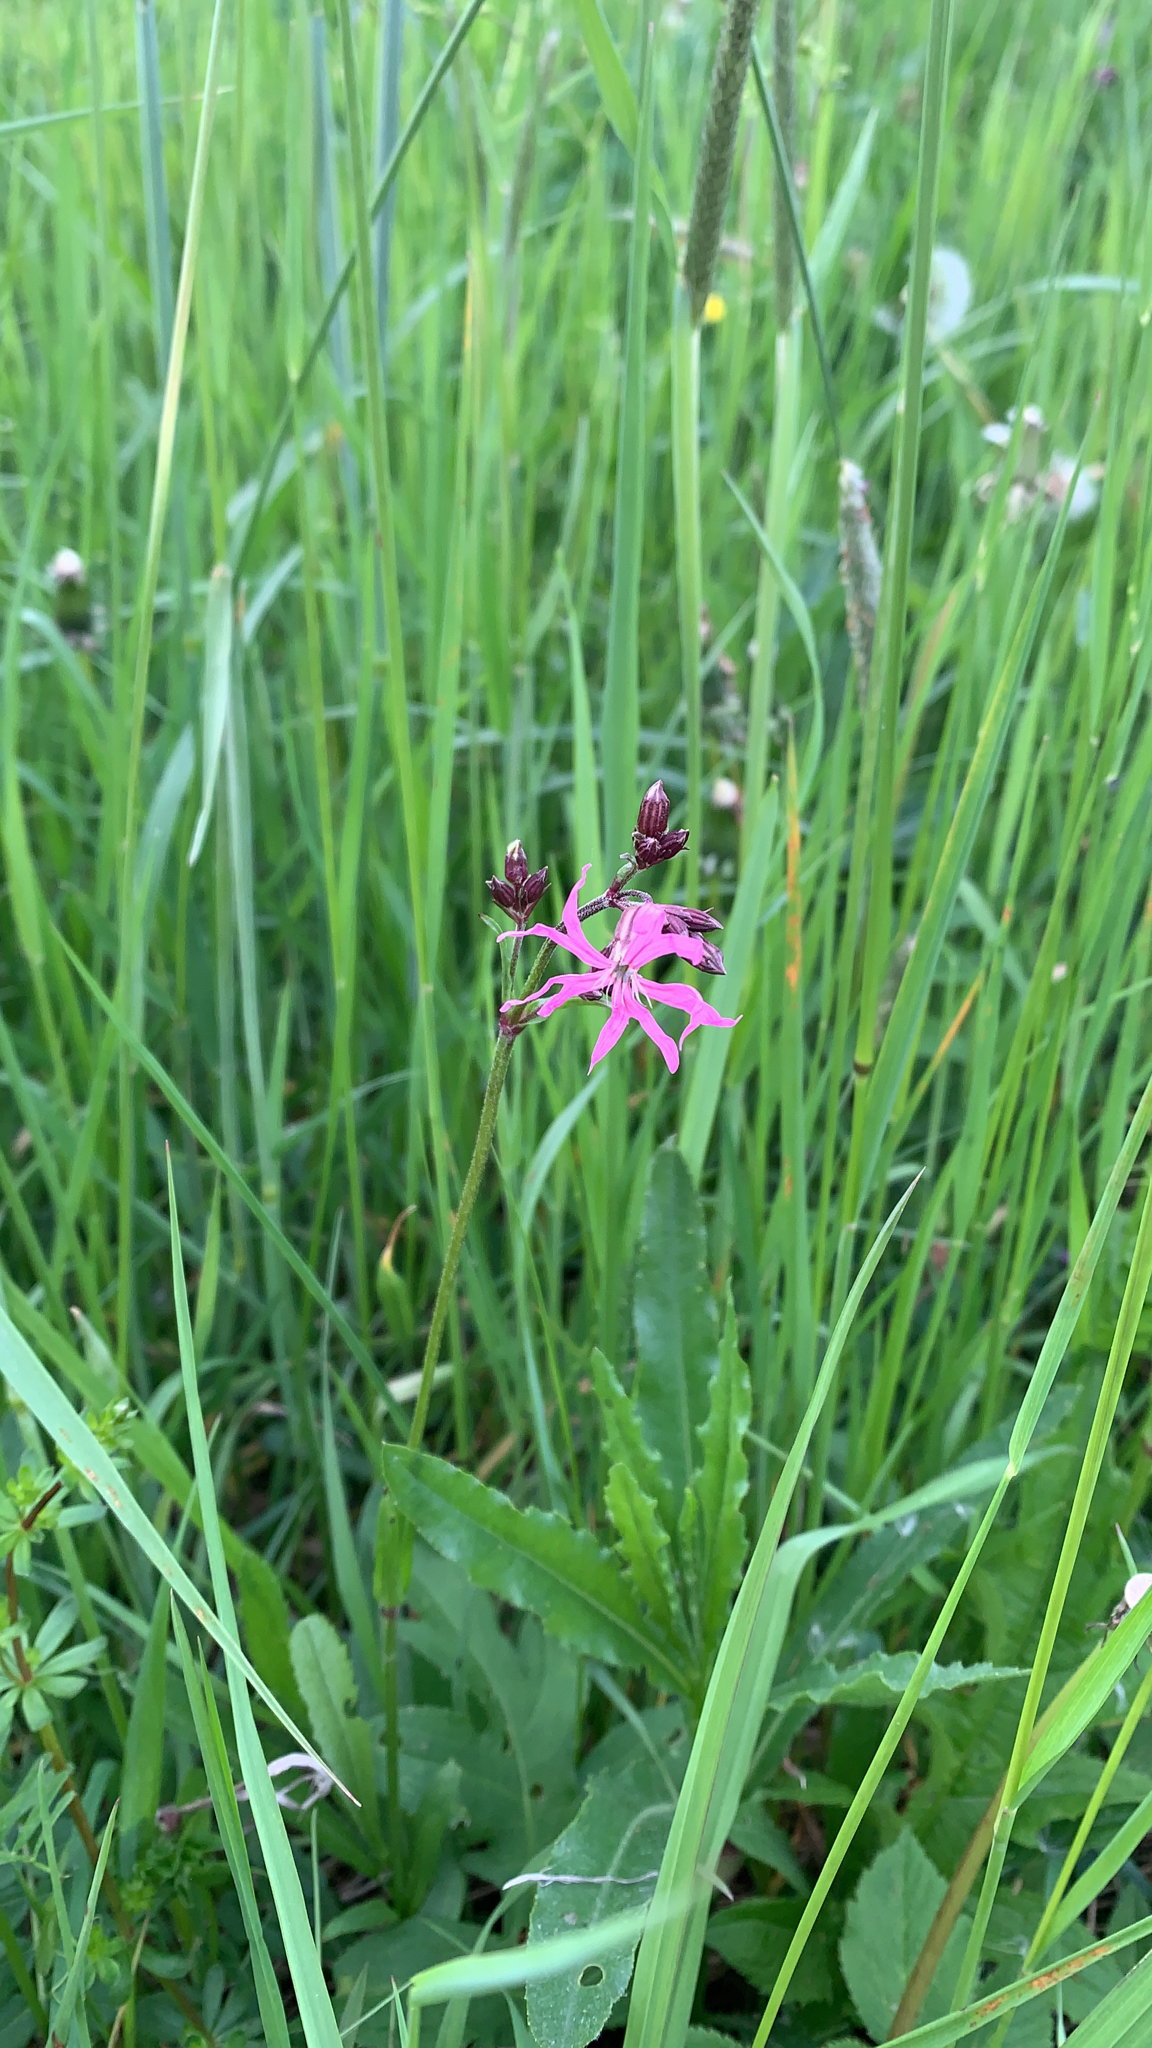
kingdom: Plantae
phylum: Tracheophyta
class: Magnoliopsida
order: Caryophyllales
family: Caryophyllaceae
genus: Silene
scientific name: Silene flos-cuculi
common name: Ragged-robin
